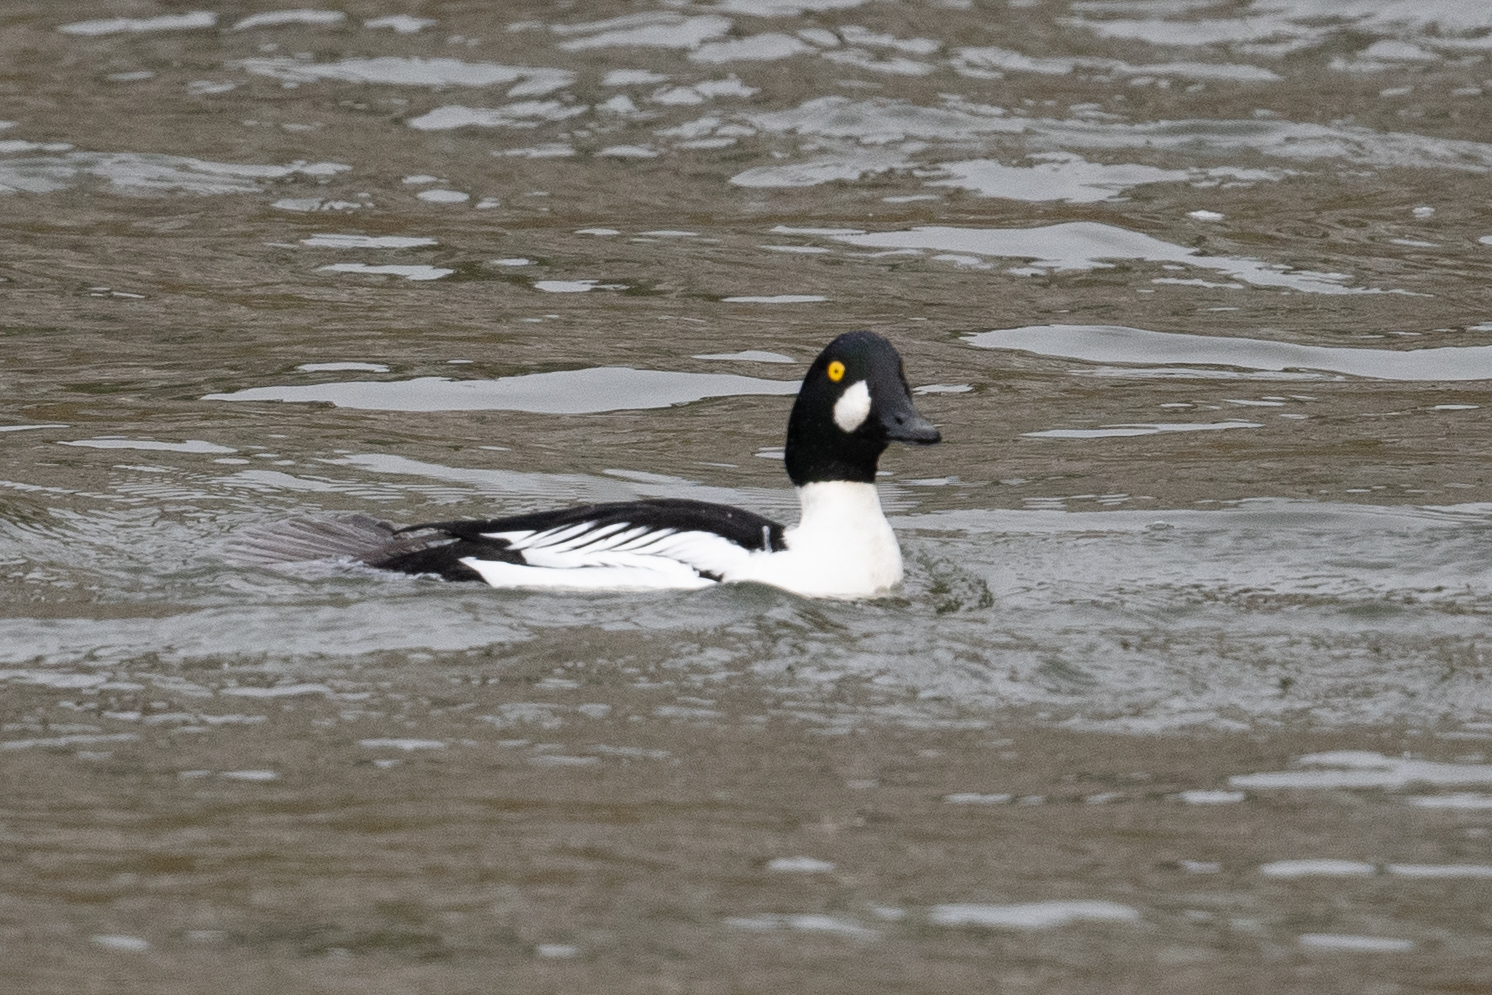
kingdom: Animalia
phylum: Chordata
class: Aves
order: Anseriformes
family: Anatidae
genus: Bucephala
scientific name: Bucephala clangula
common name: Common goldeneye
